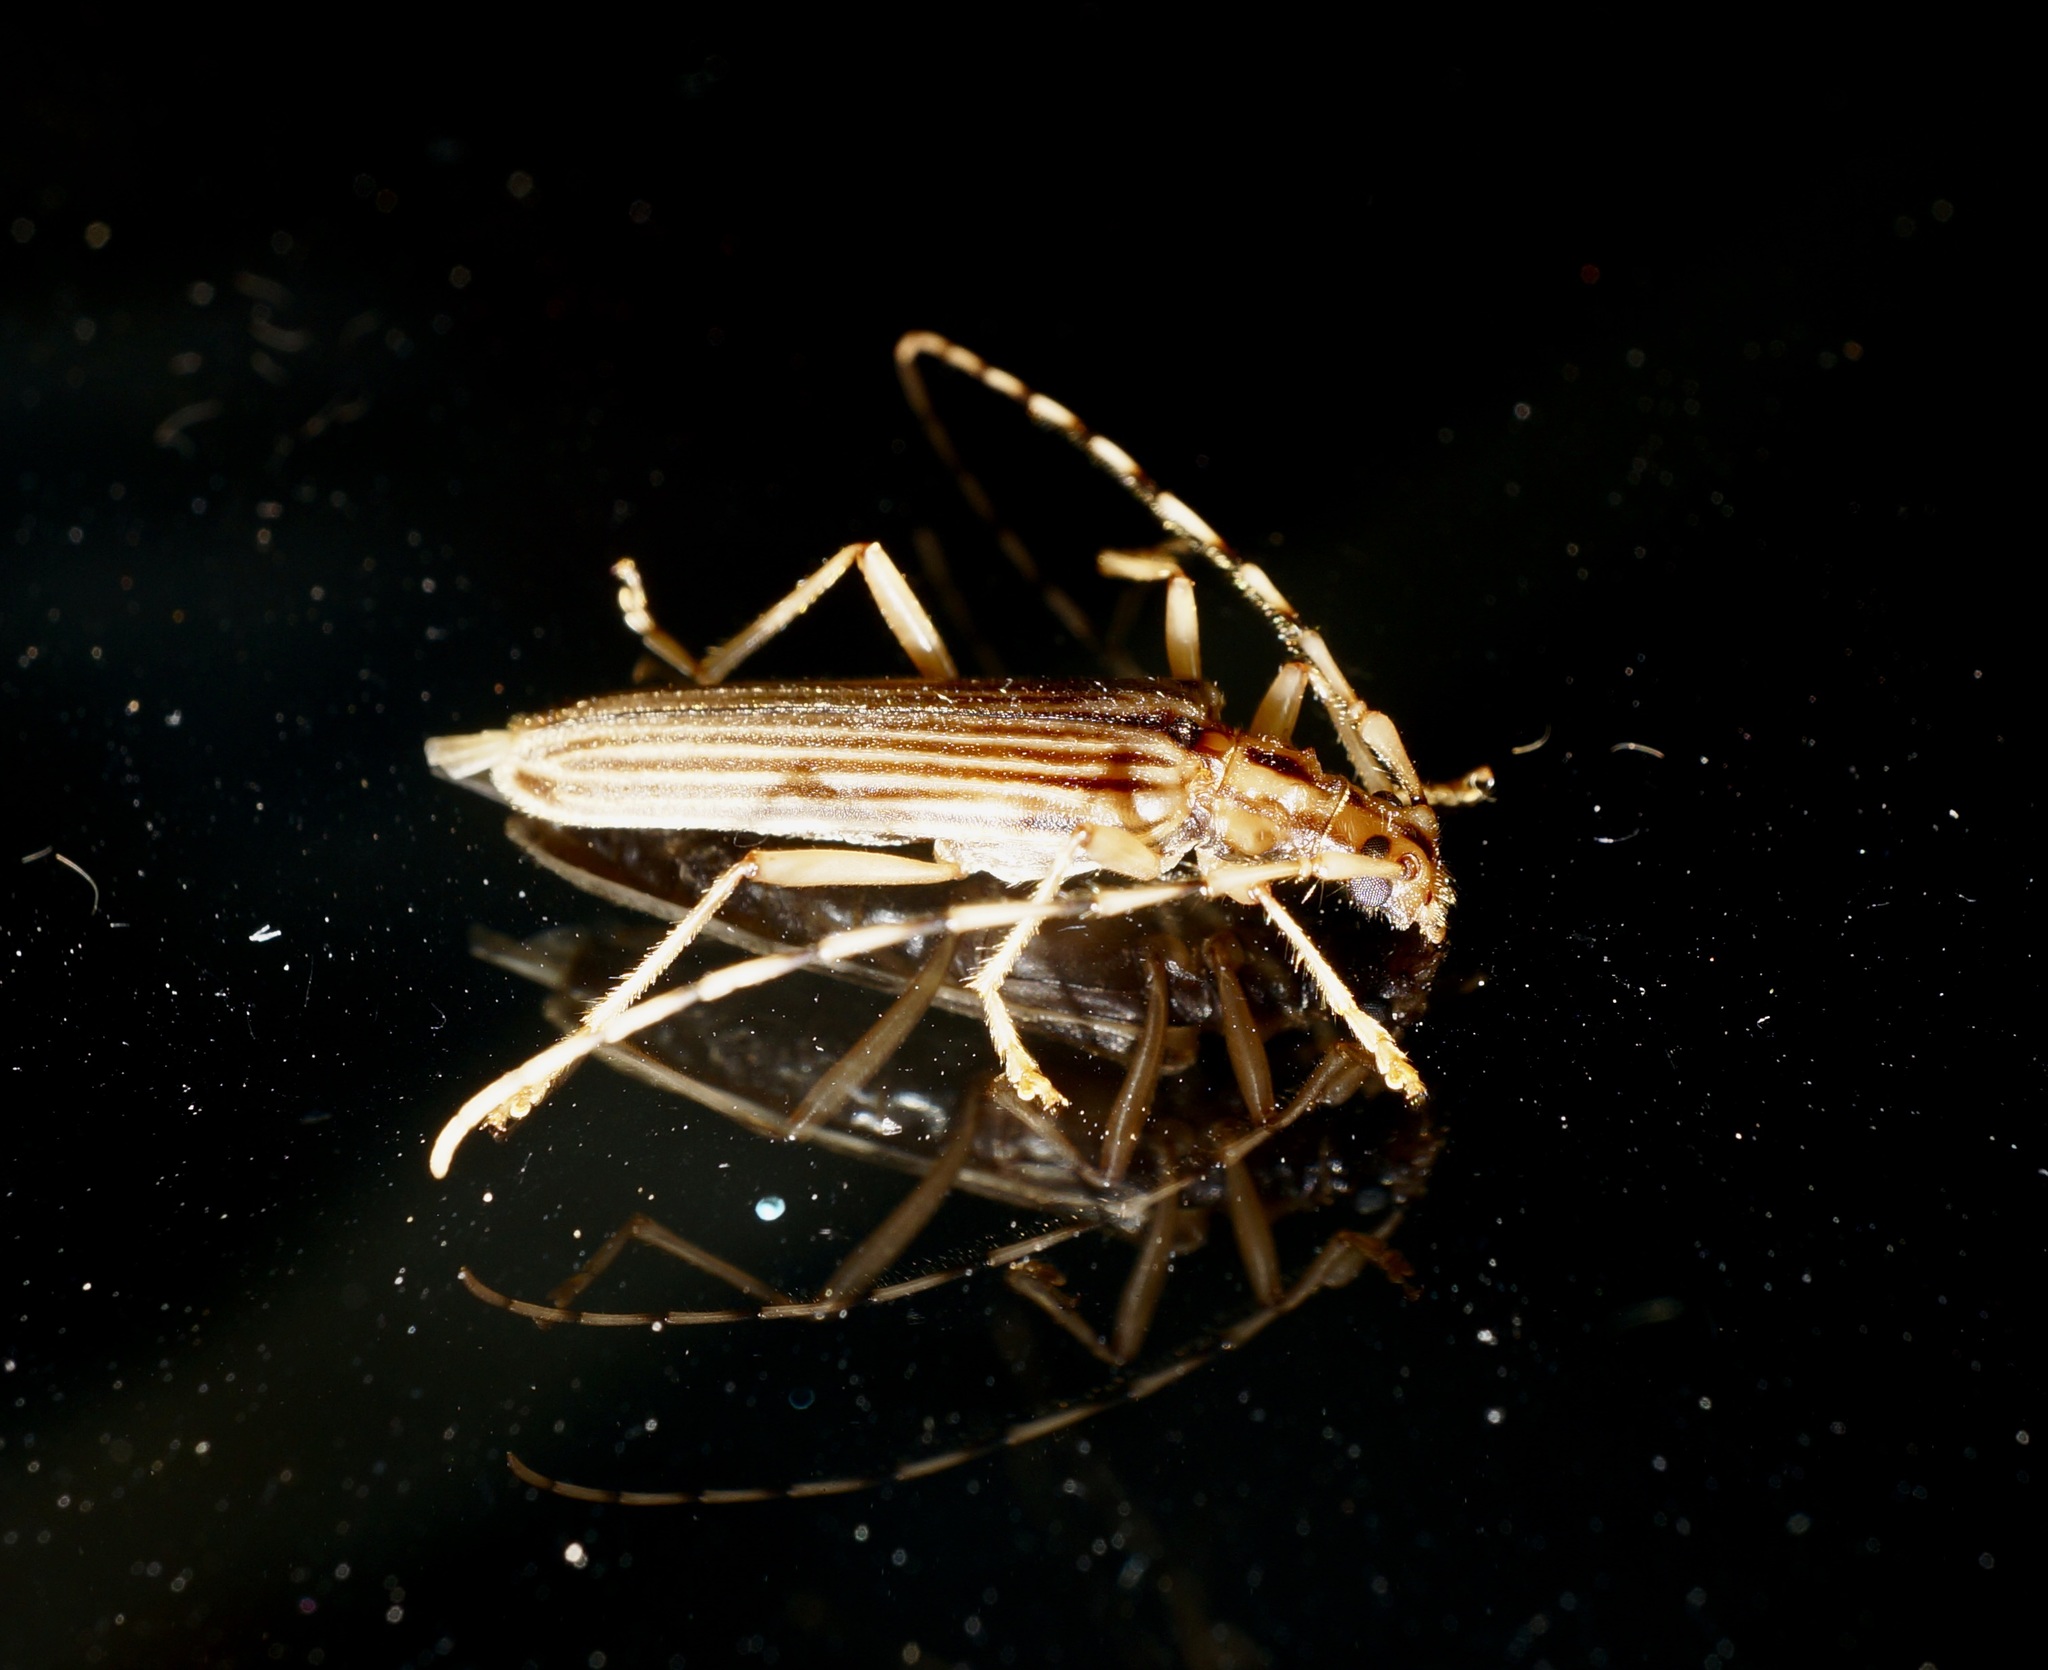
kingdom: Animalia
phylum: Arthropoda
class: Insecta
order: Coleoptera
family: Cerambycidae
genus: Leptachrous
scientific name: Leptachrous strigipennis
